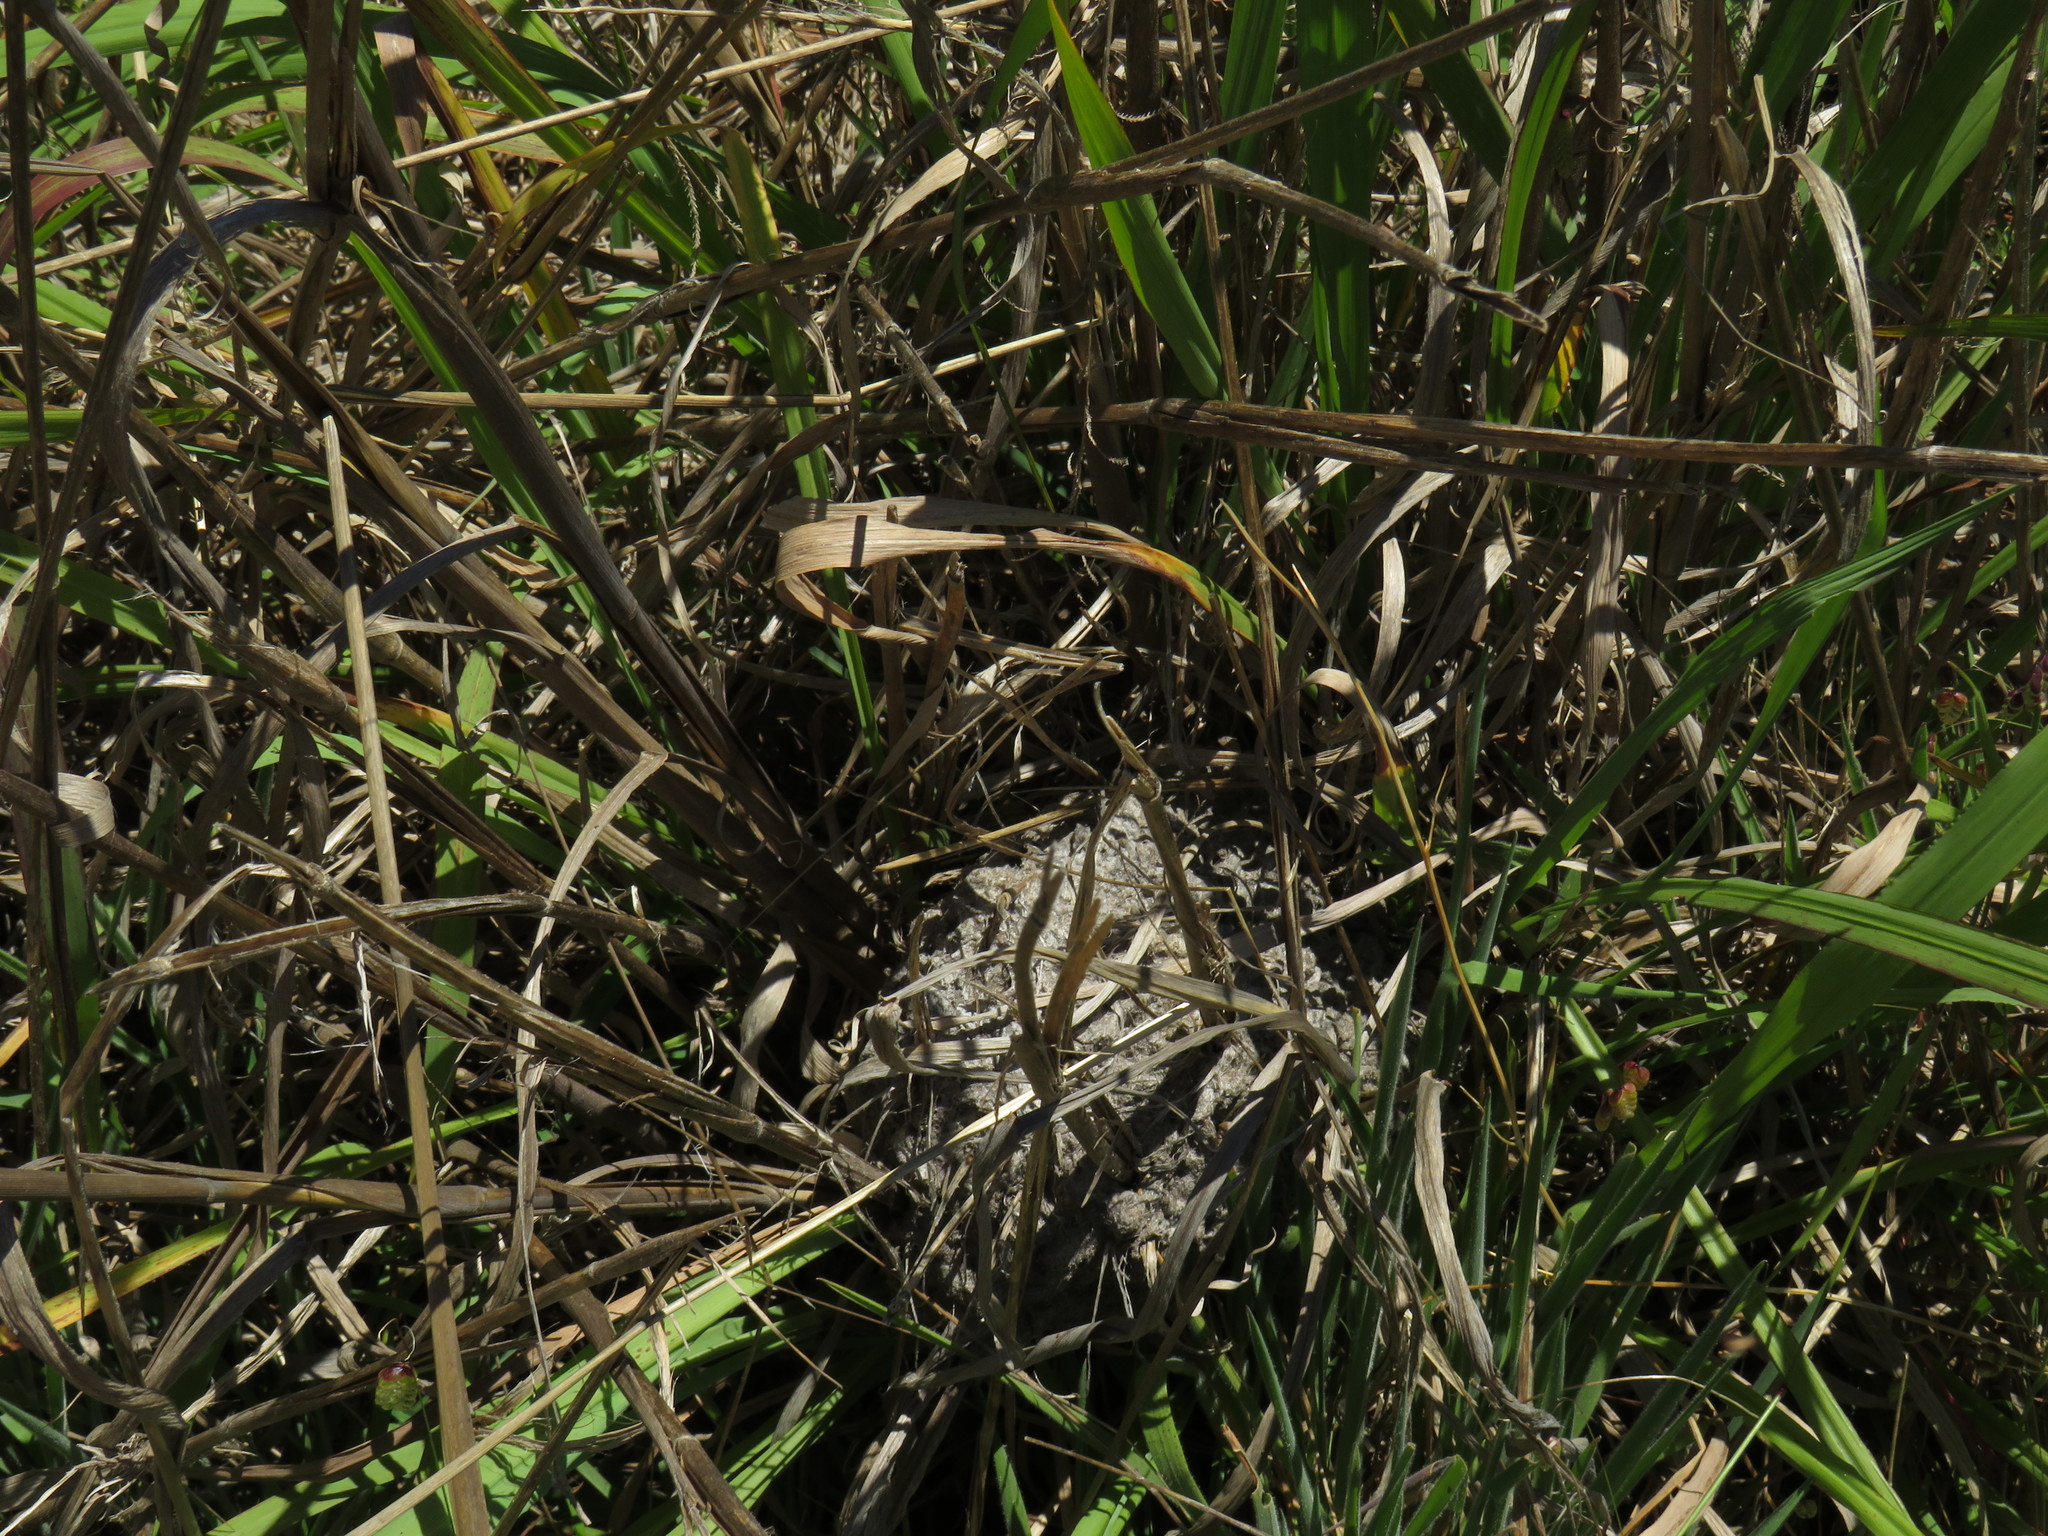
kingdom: Animalia
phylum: Arthropoda
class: Insecta
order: Hymenoptera
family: Formicidae
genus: Crematogaster
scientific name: Crematogaster peringueyi
